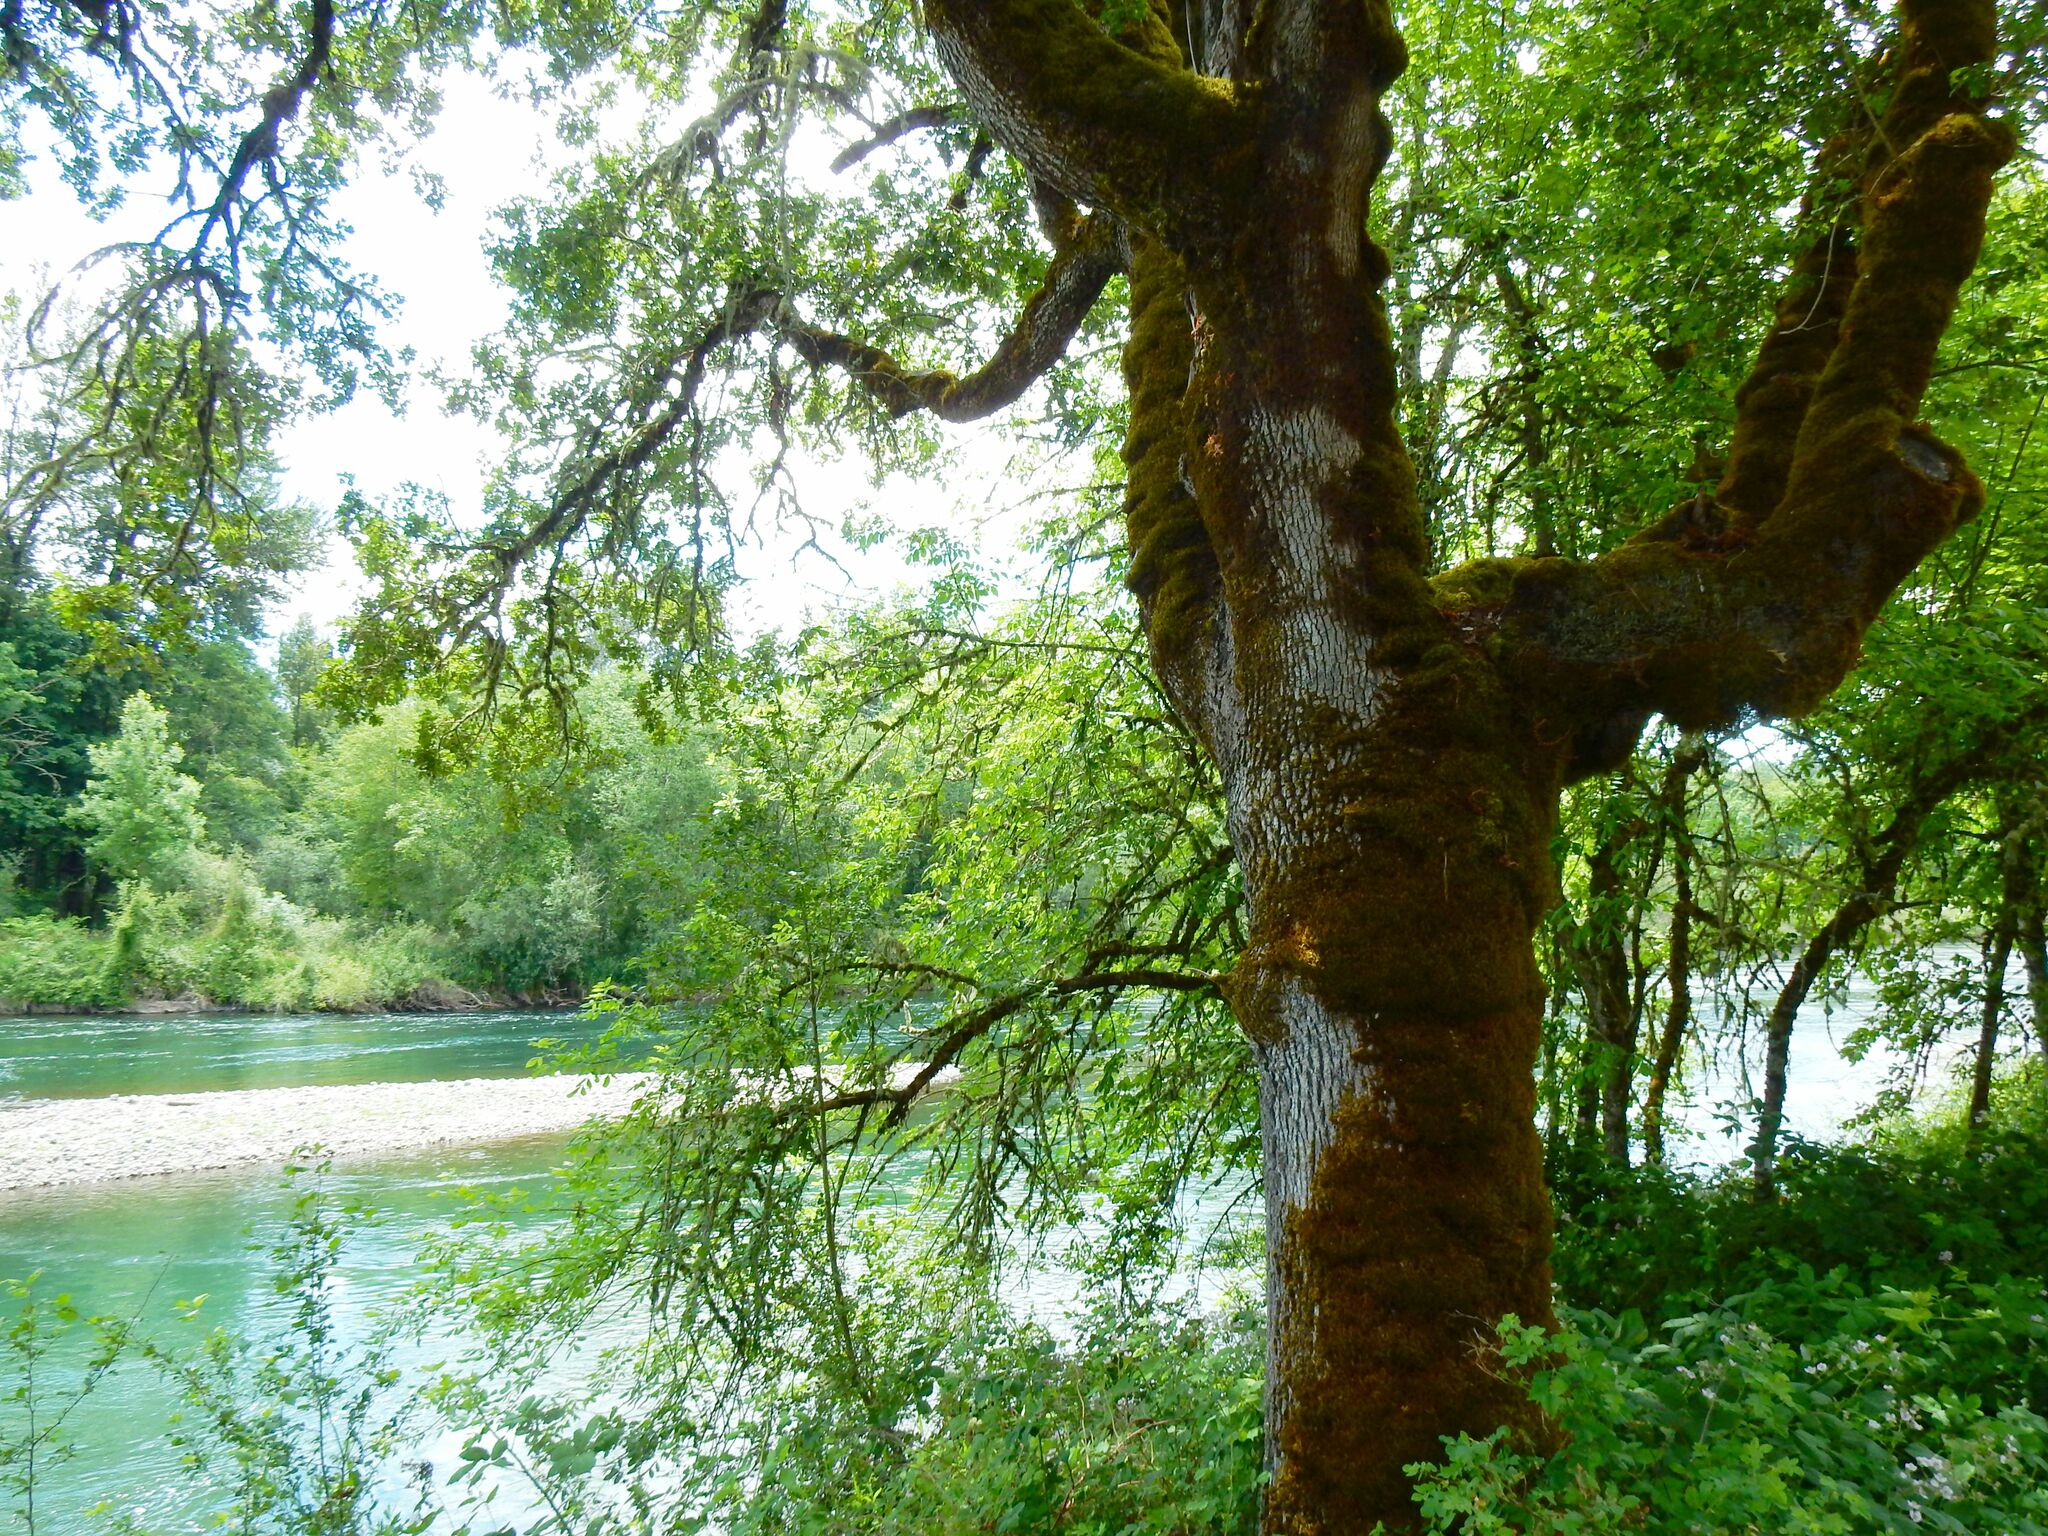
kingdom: Plantae
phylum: Tracheophyta
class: Magnoliopsida
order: Fagales
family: Fagaceae
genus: Quercus
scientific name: Quercus garryana
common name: Garry oak
